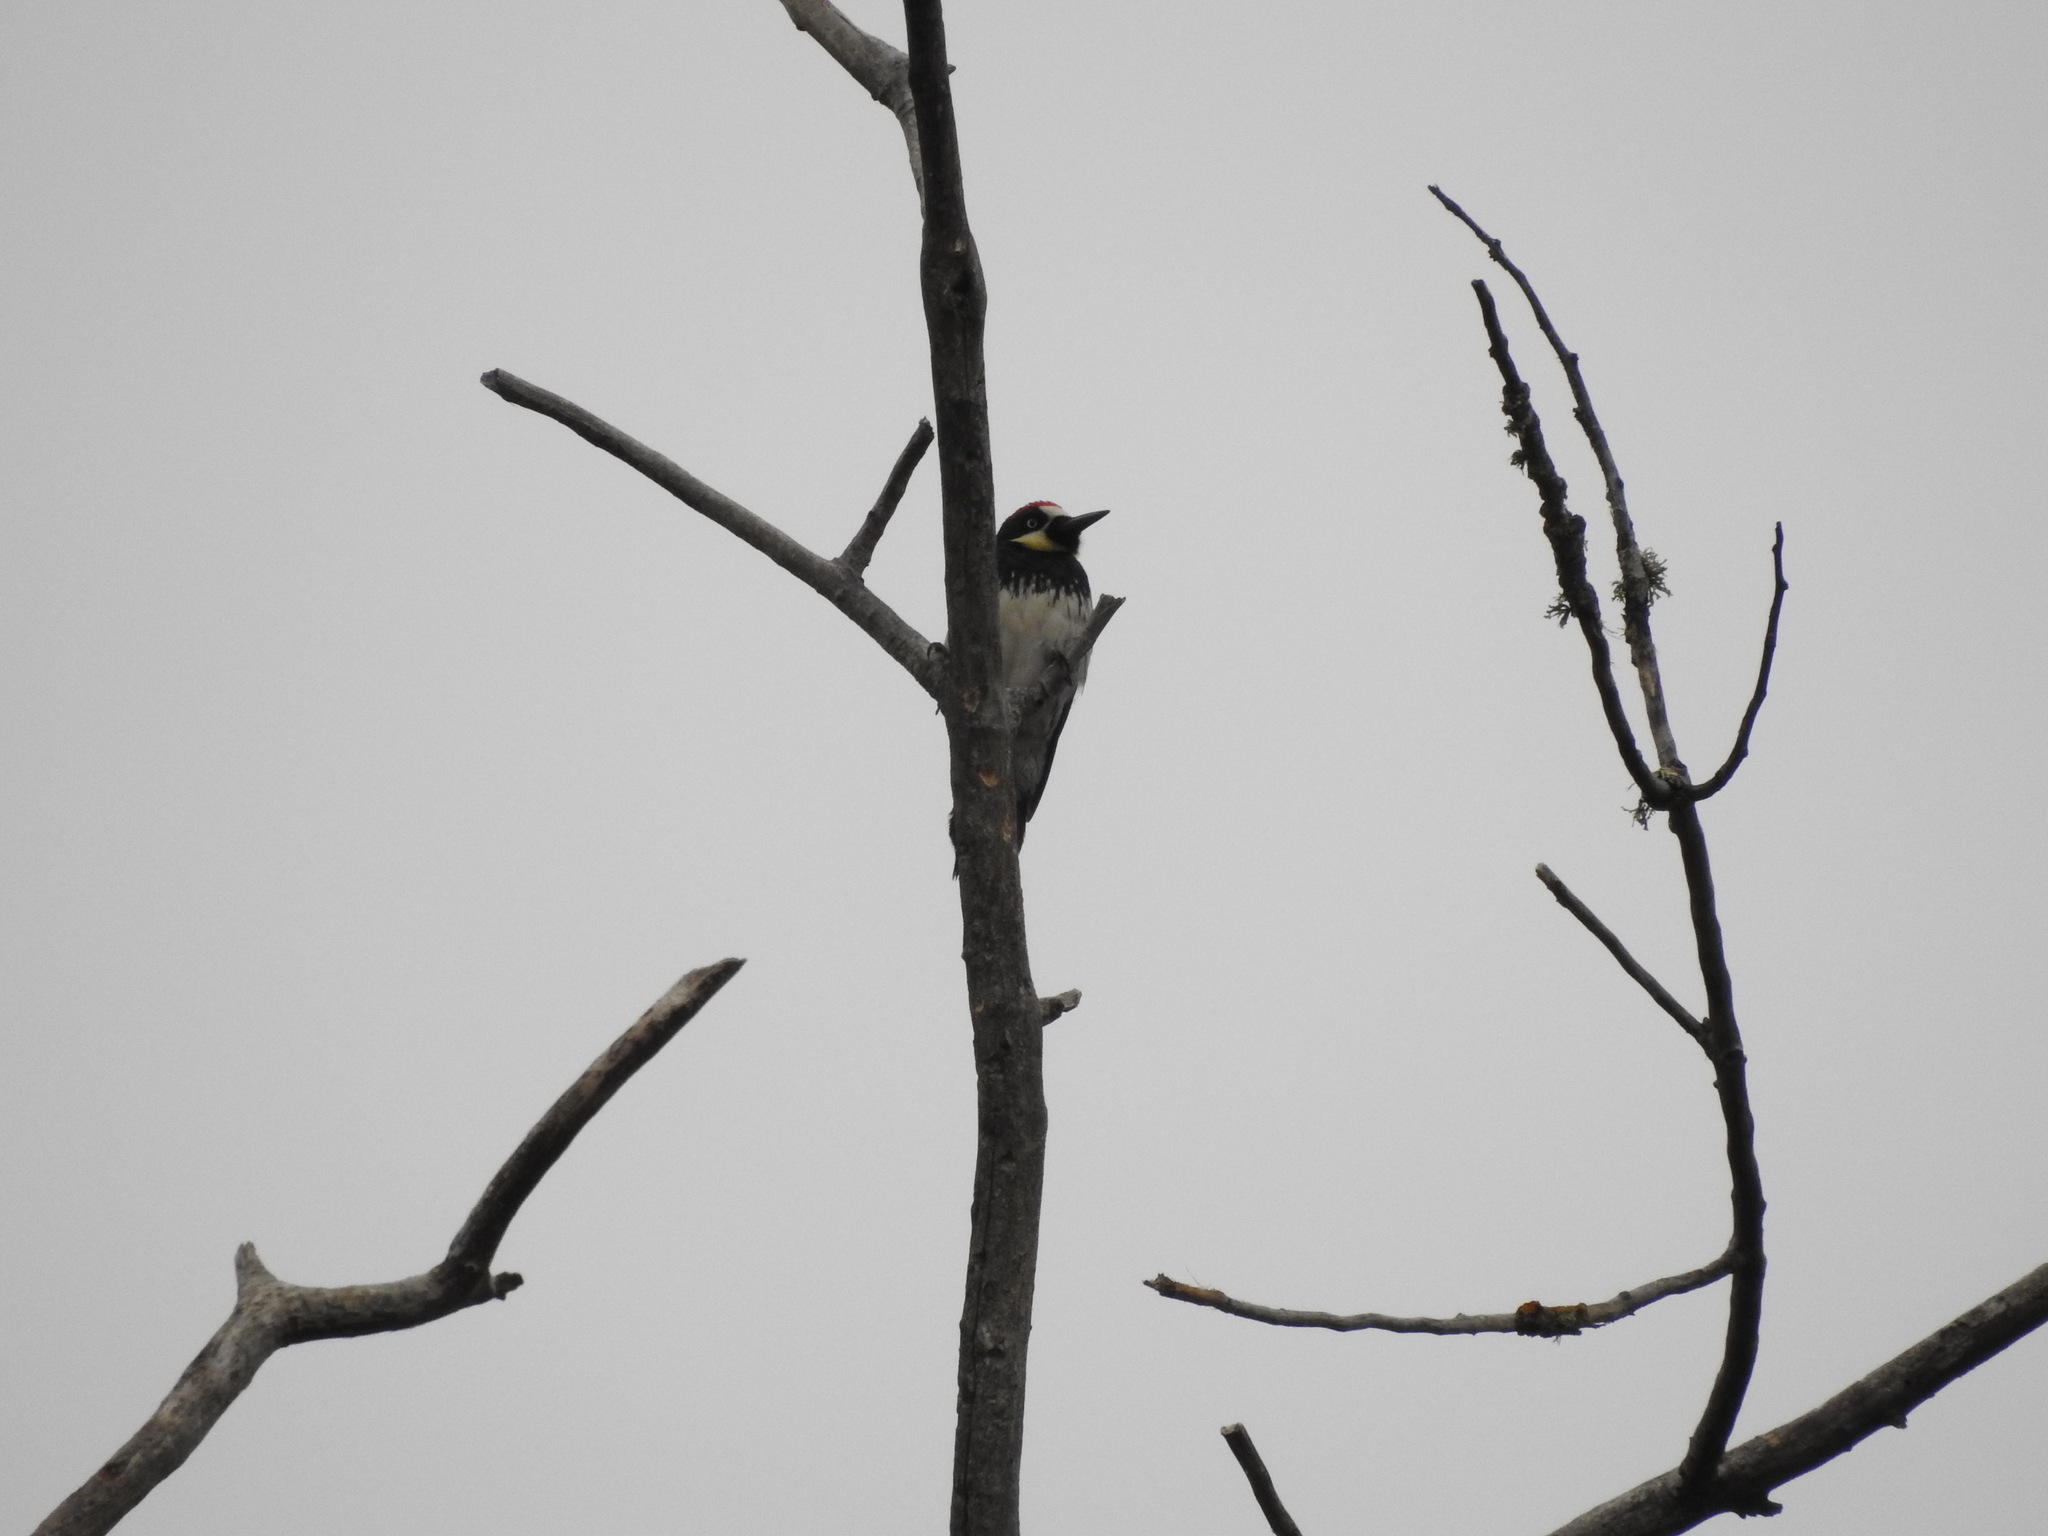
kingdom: Animalia
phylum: Chordata
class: Aves
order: Piciformes
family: Picidae
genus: Melanerpes
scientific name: Melanerpes formicivorus
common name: Acorn woodpecker
